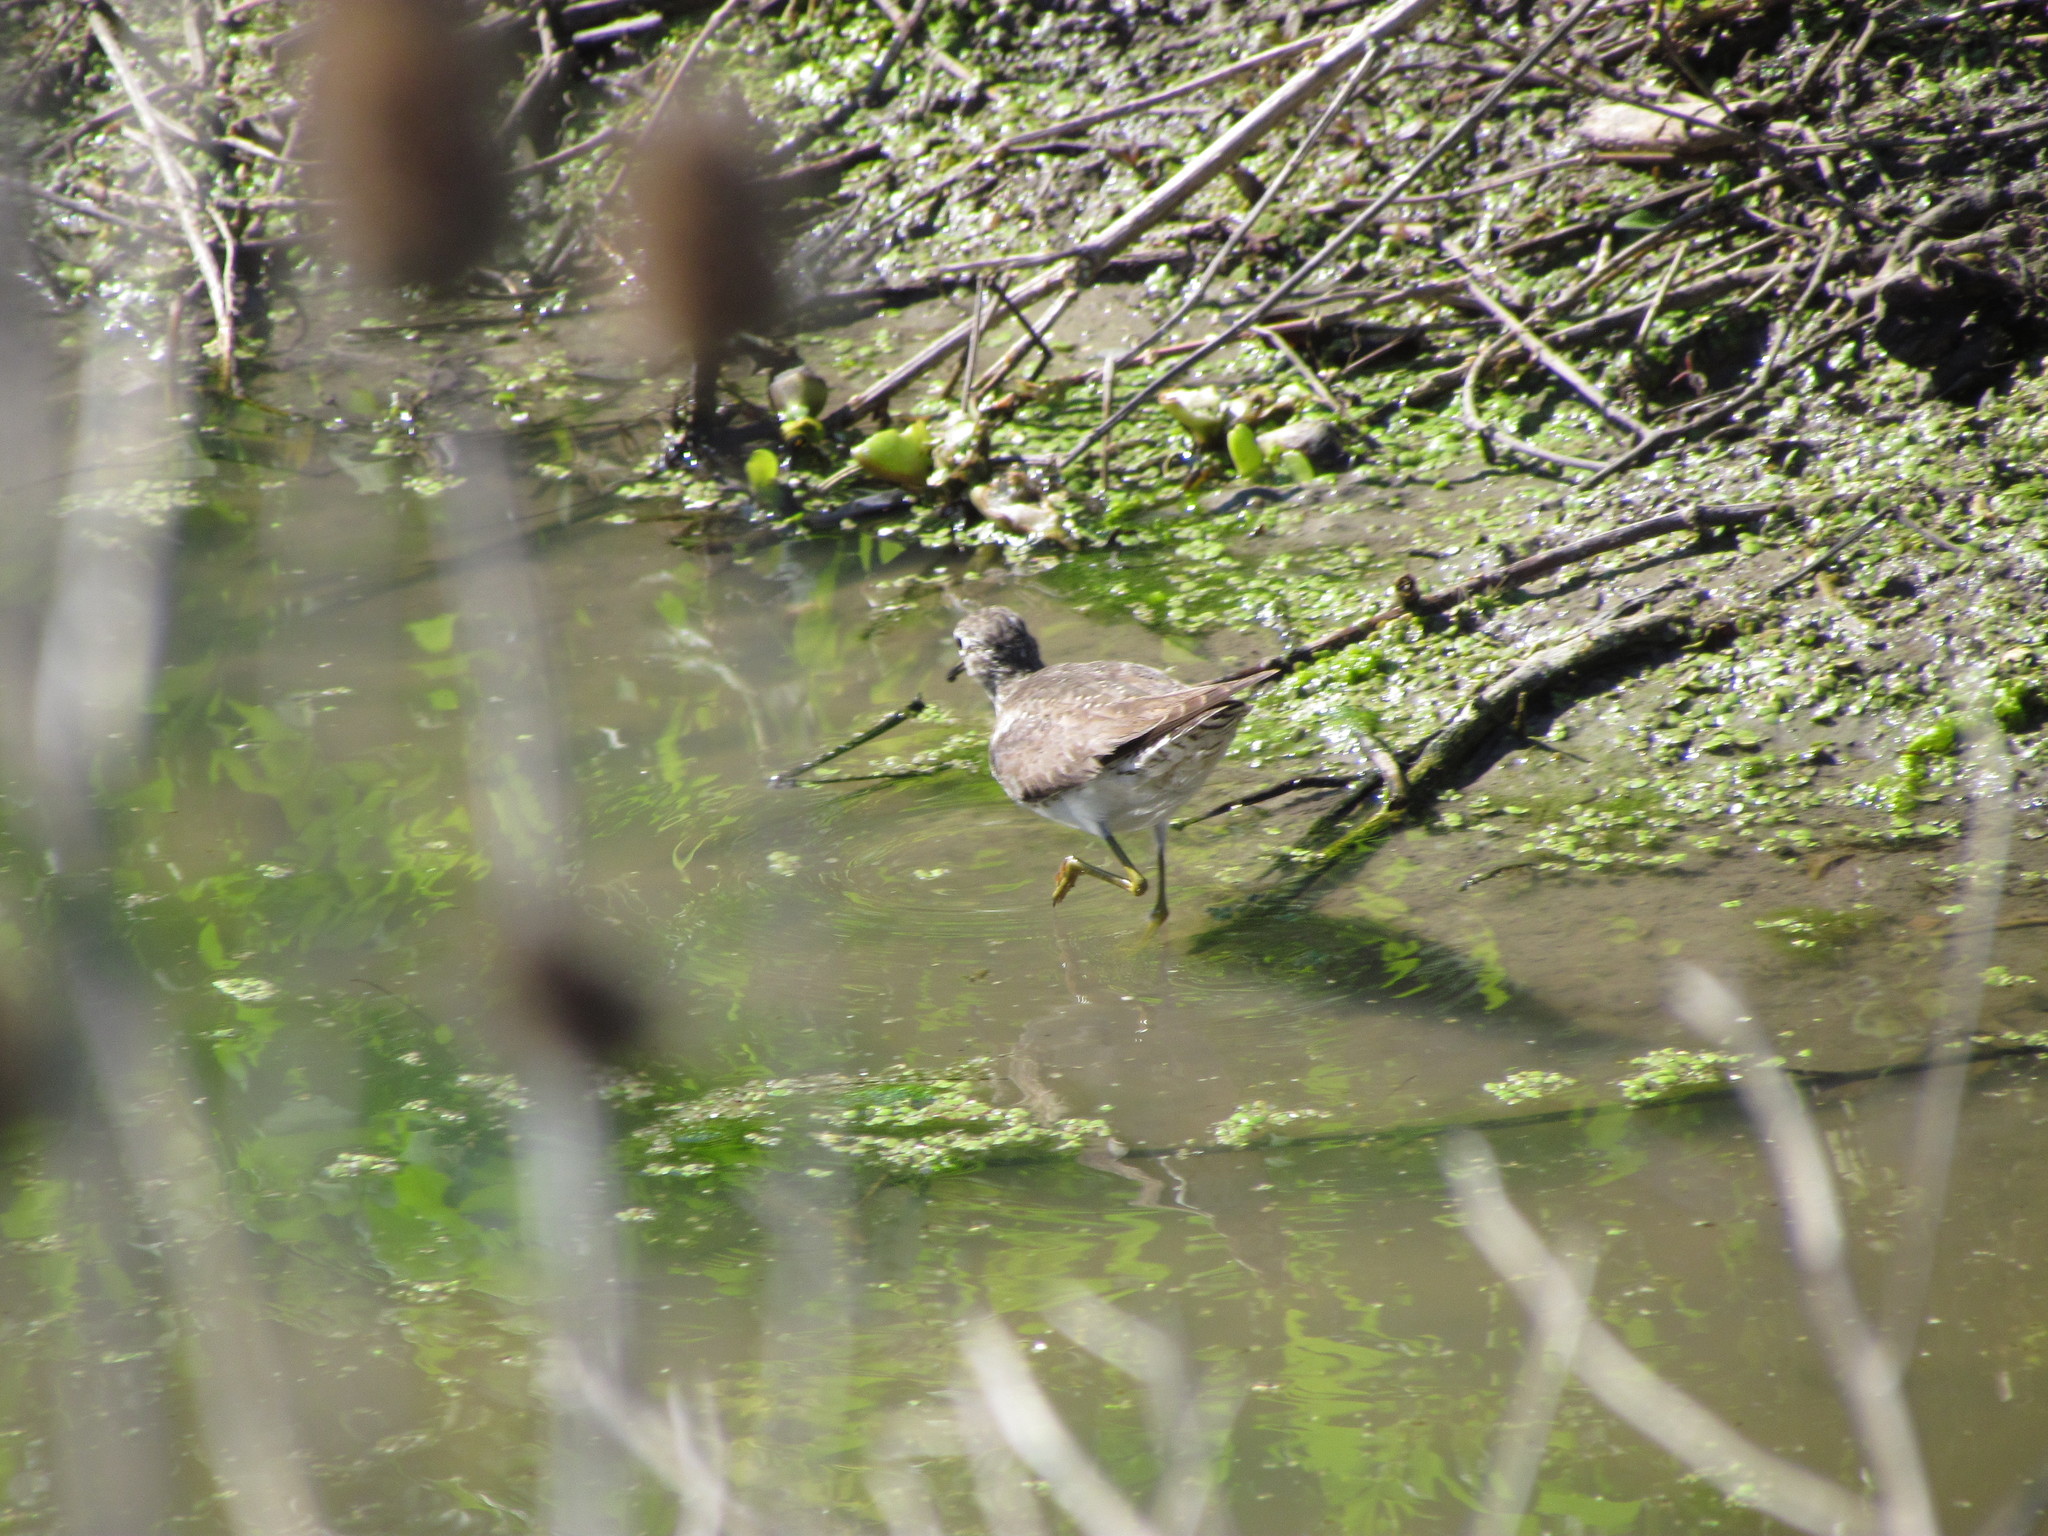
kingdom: Animalia
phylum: Chordata
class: Aves
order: Charadriiformes
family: Scolopacidae
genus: Tringa
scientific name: Tringa flavipes
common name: Lesser yellowlegs
